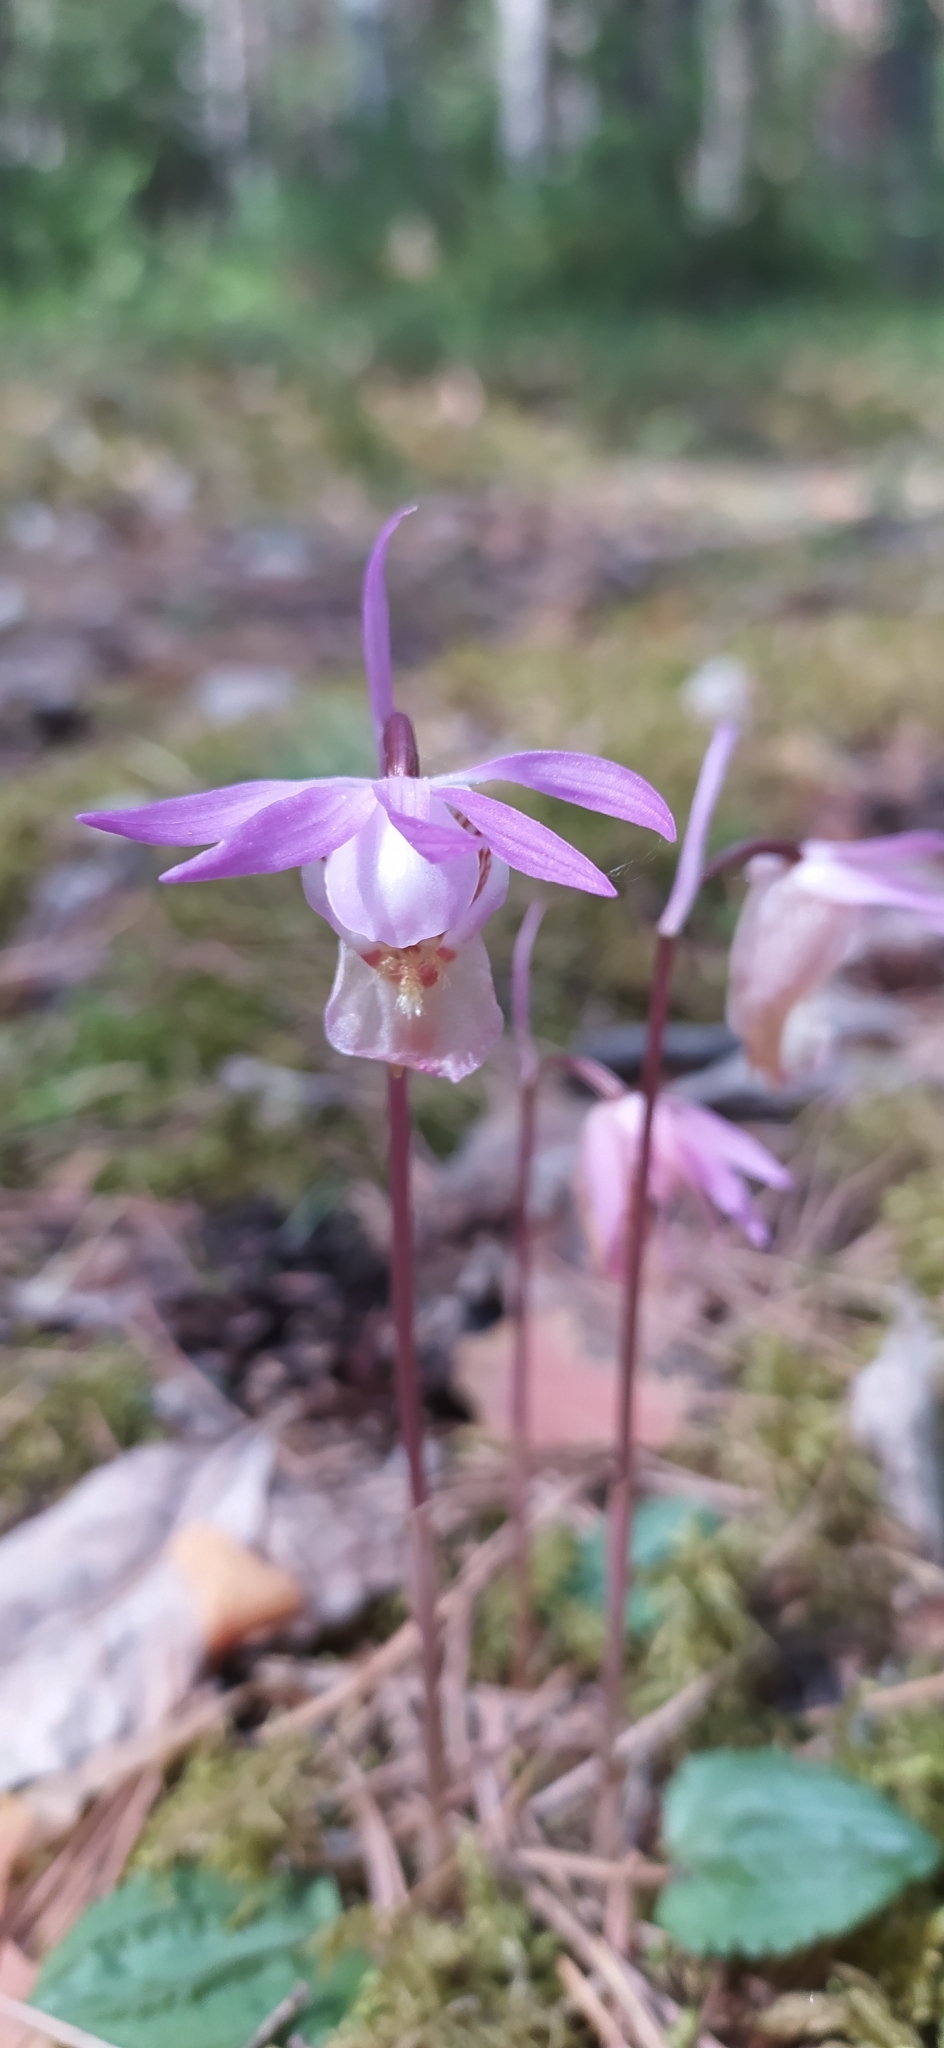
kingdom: Plantae
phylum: Tracheophyta
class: Liliopsida
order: Asparagales
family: Orchidaceae
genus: Calypso
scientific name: Calypso bulbosa
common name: Calypso
